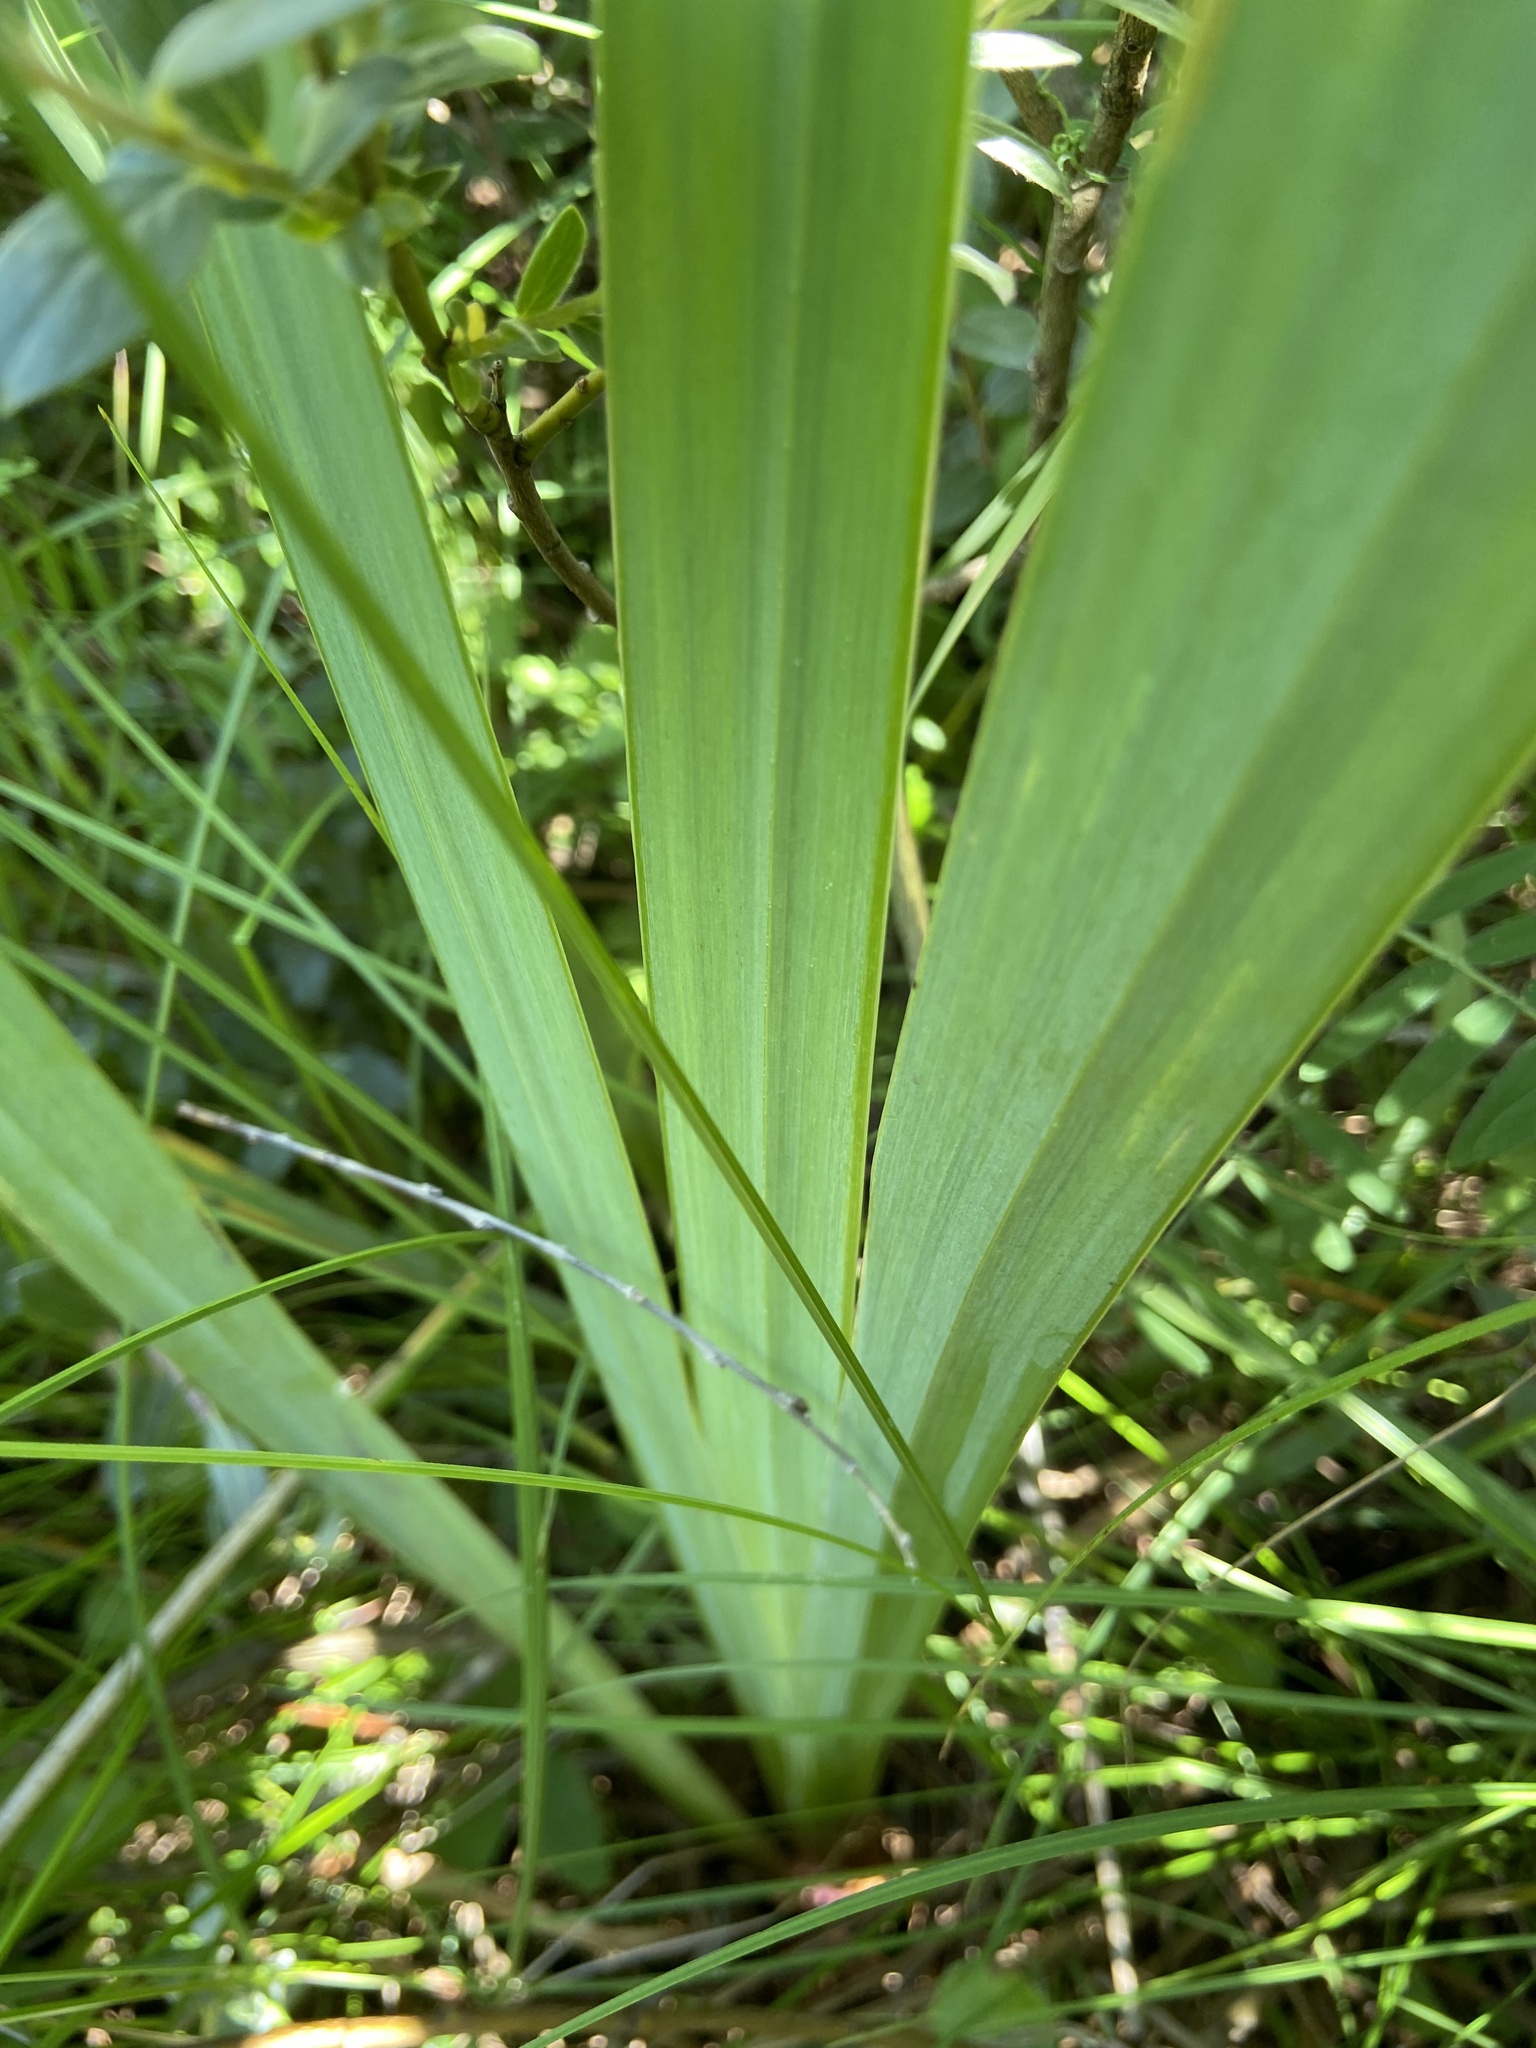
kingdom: Plantae
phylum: Tracheophyta
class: Liliopsida
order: Asparagales
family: Iridaceae
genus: Iris
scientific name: Iris pseudacorus
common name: Yellow flag
